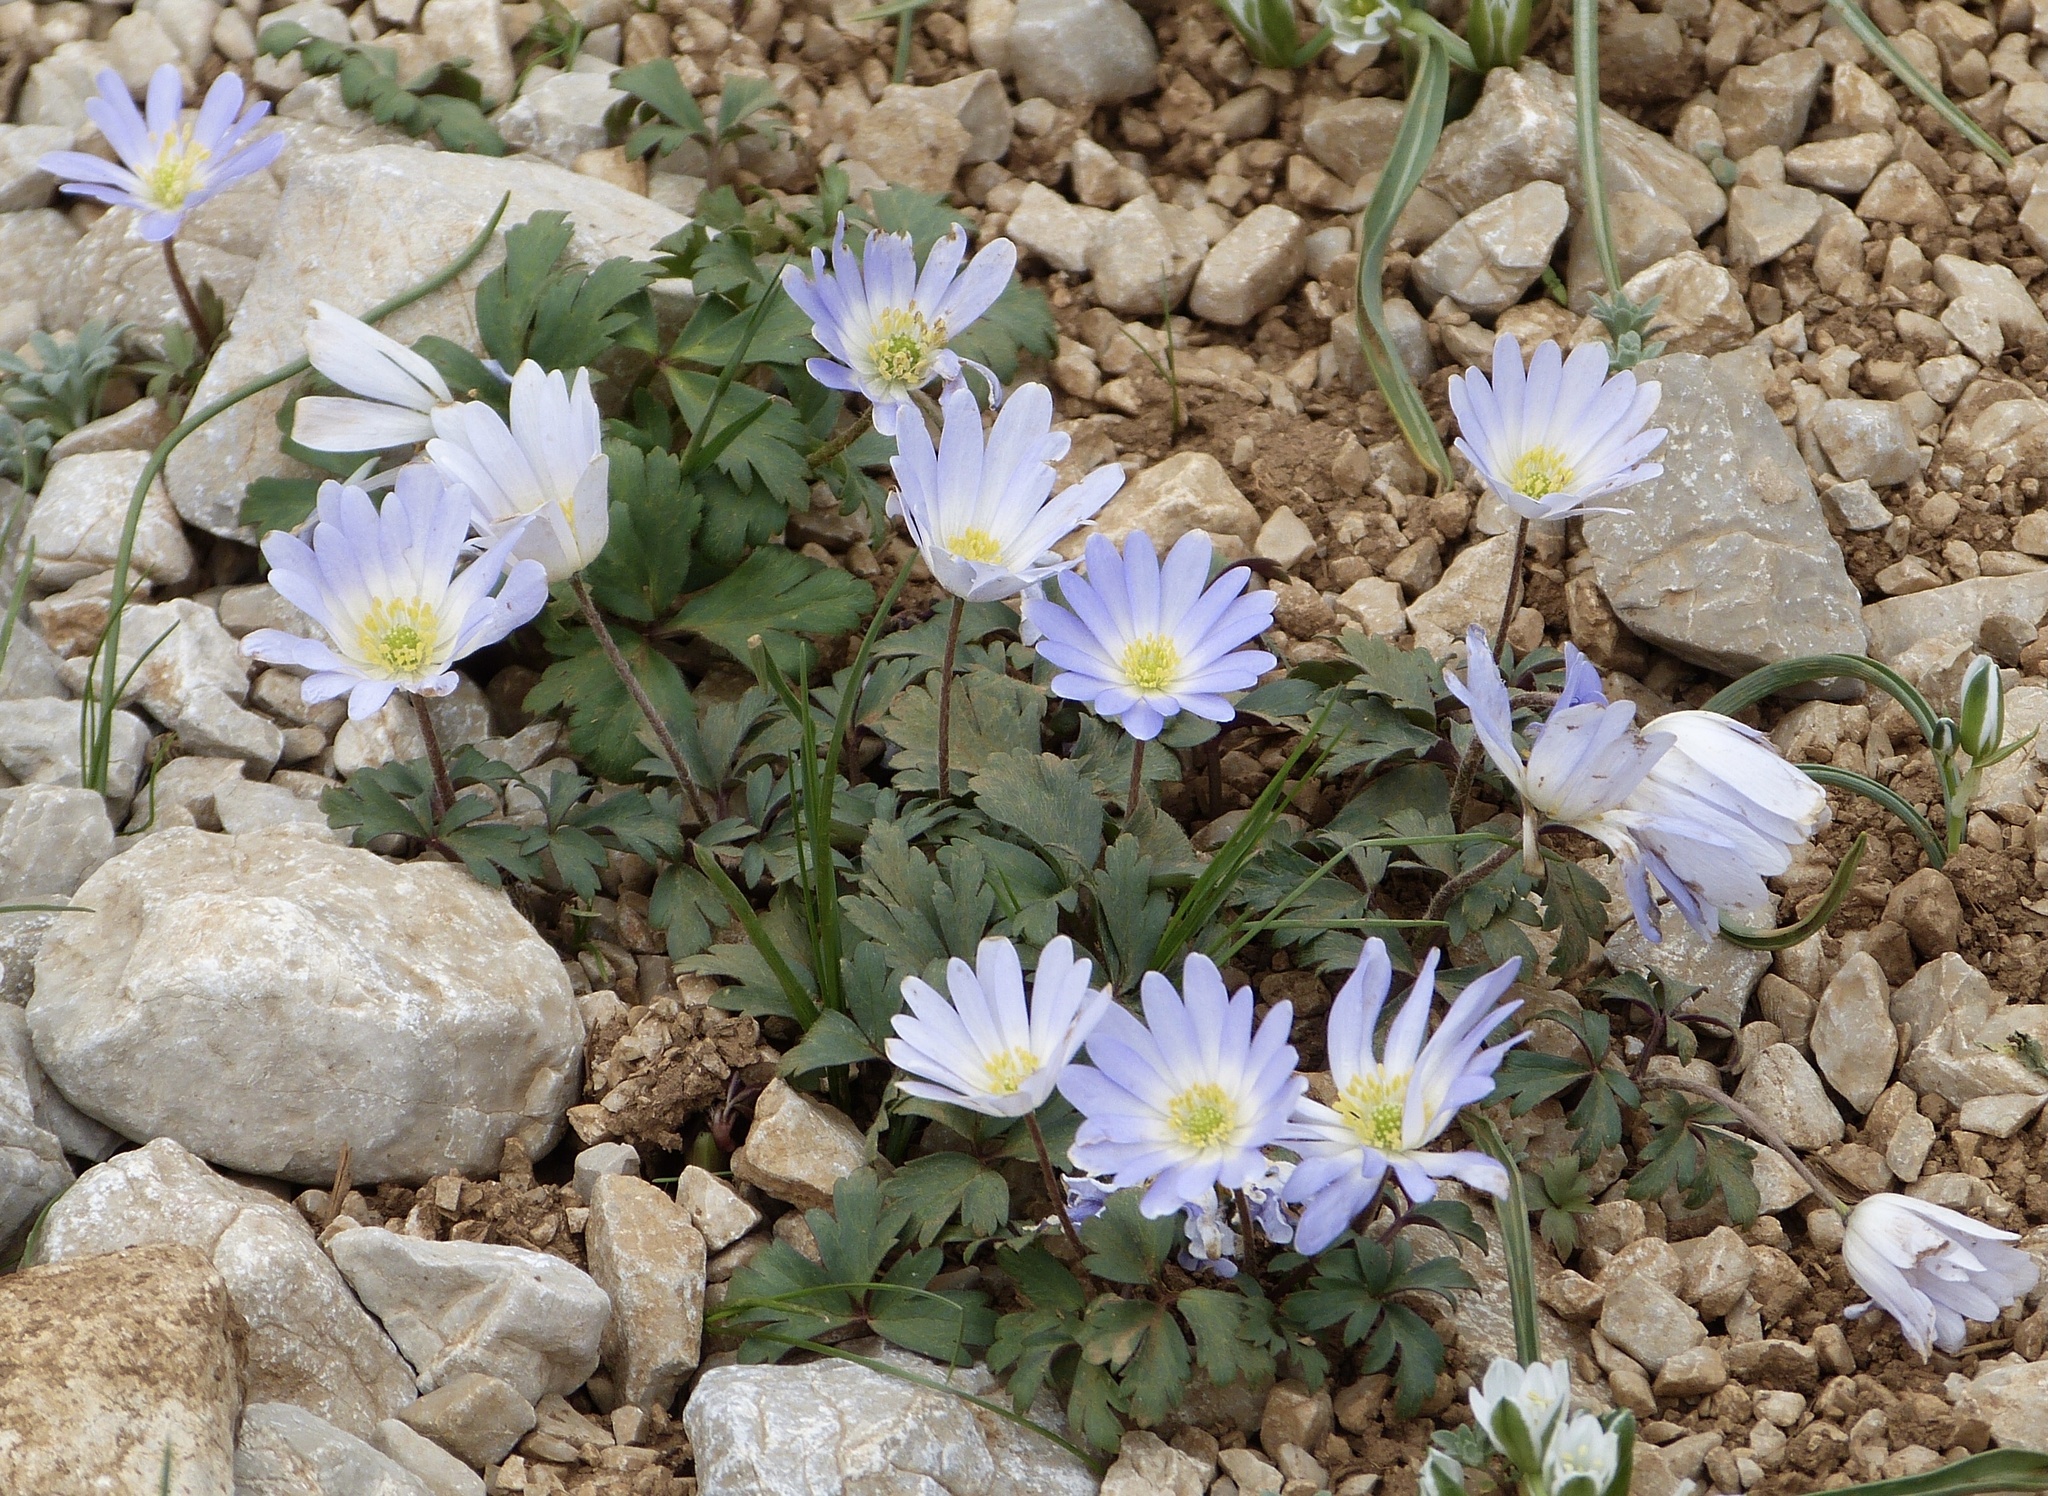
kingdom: Plantae
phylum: Tracheophyta
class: Magnoliopsida
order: Ranunculales
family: Ranunculaceae
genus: Anemone
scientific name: Anemone blanda
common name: Balkan anemone
